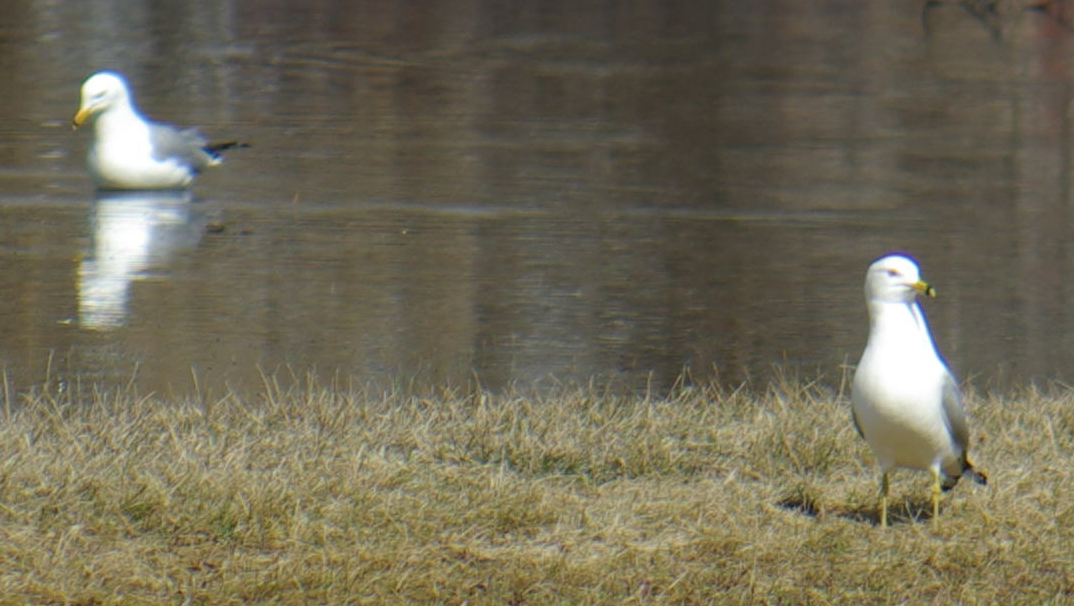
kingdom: Animalia
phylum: Chordata
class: Aves
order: Charadriiformes
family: Laridae
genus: Larus
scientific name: Larus delawarensis
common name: Ring-billed gull
